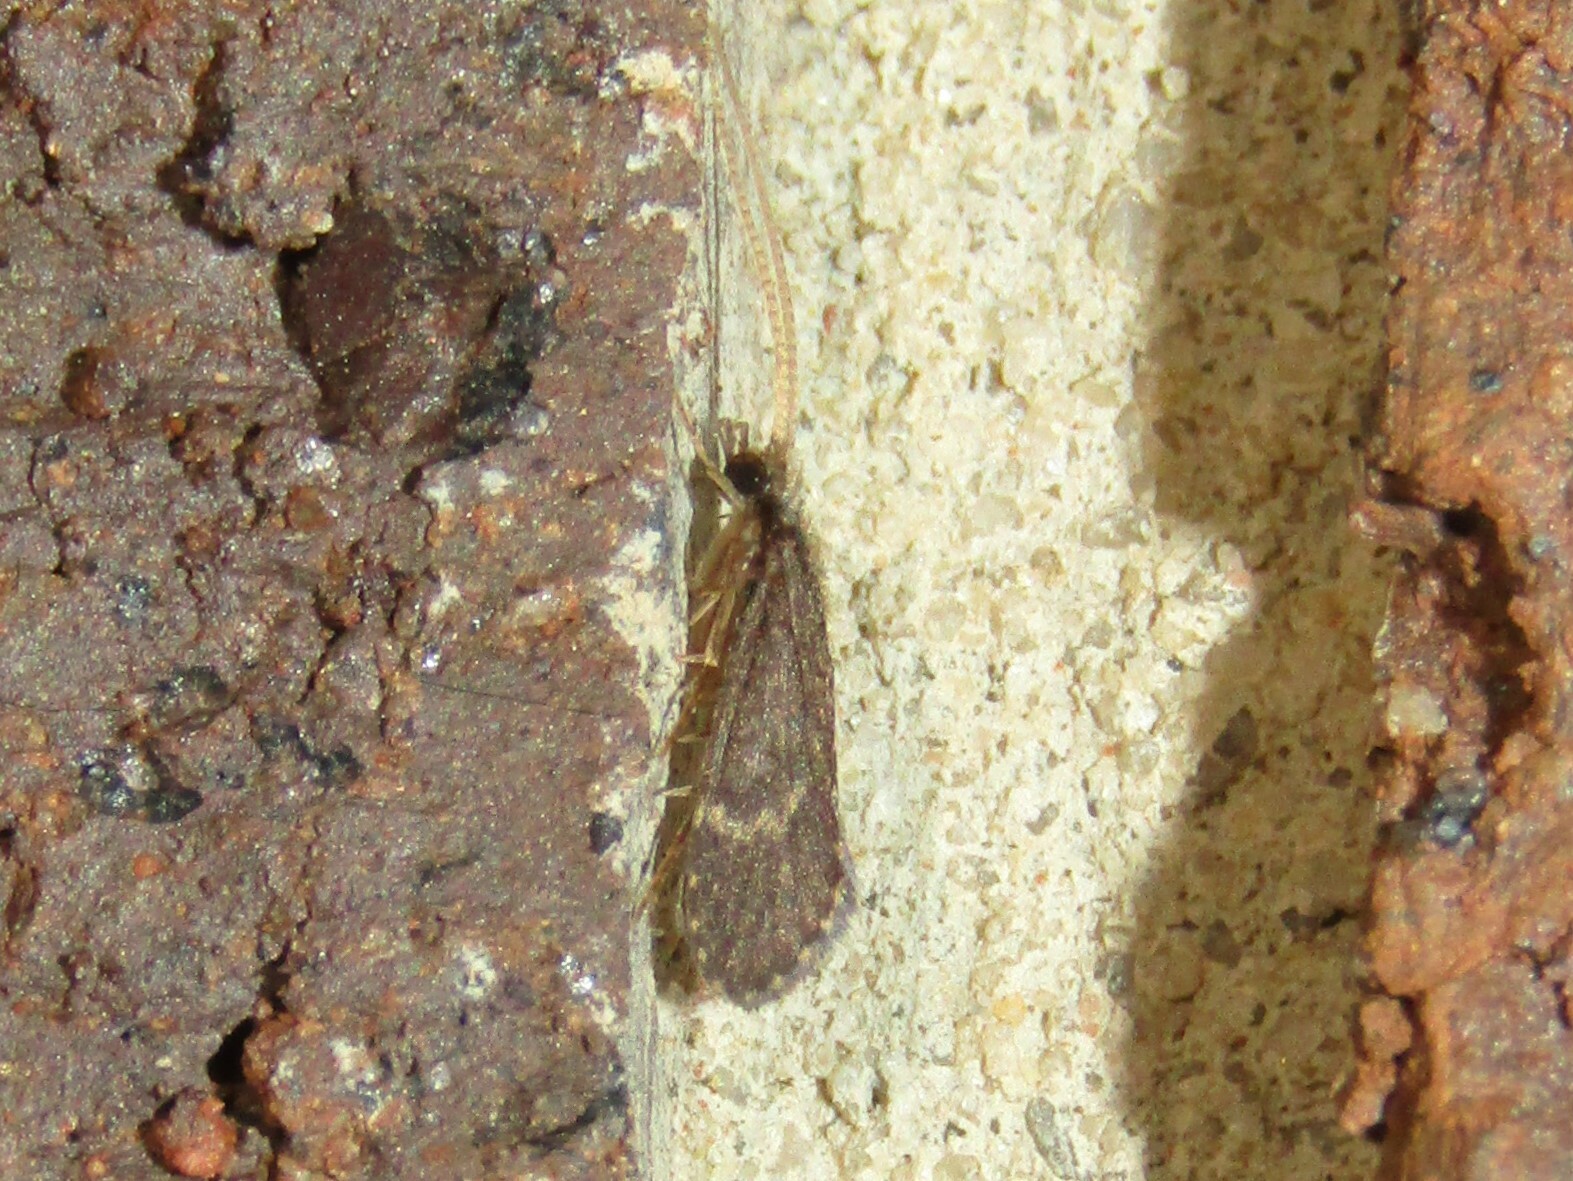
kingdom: Animalia
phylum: Arthropoda
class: Insecta
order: Trichoptera
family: Polycentropodidae
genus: Cyrnellus
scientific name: Cyrnellus fraternus
